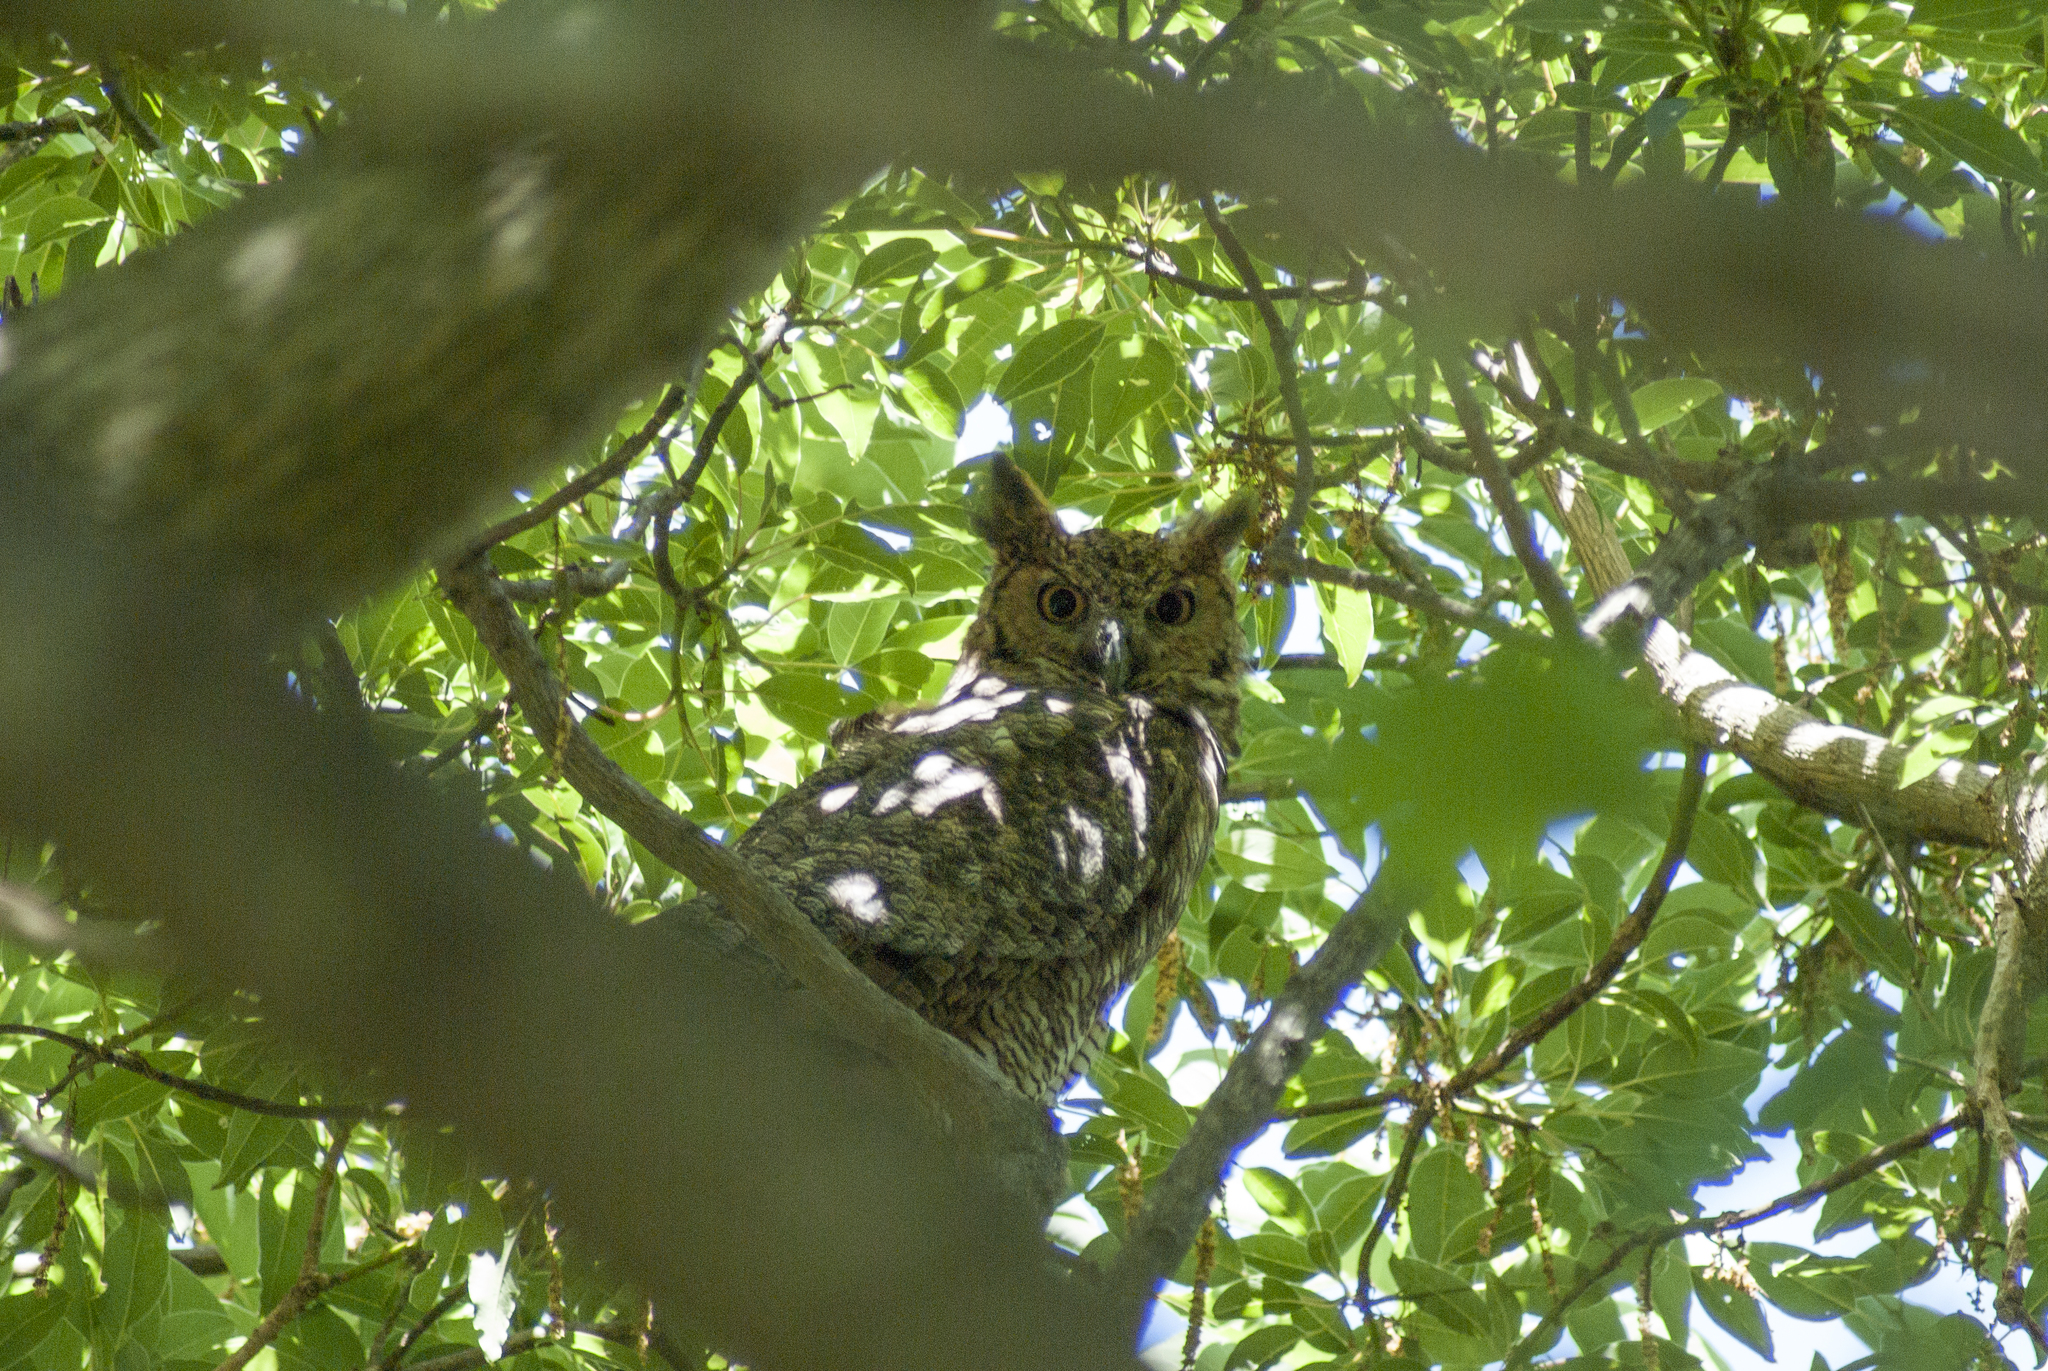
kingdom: Animalia
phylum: Chordata
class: Aves
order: Strigiformes
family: Strigidae
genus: Bubo
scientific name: Bubo virginianus
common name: Great horned owl
